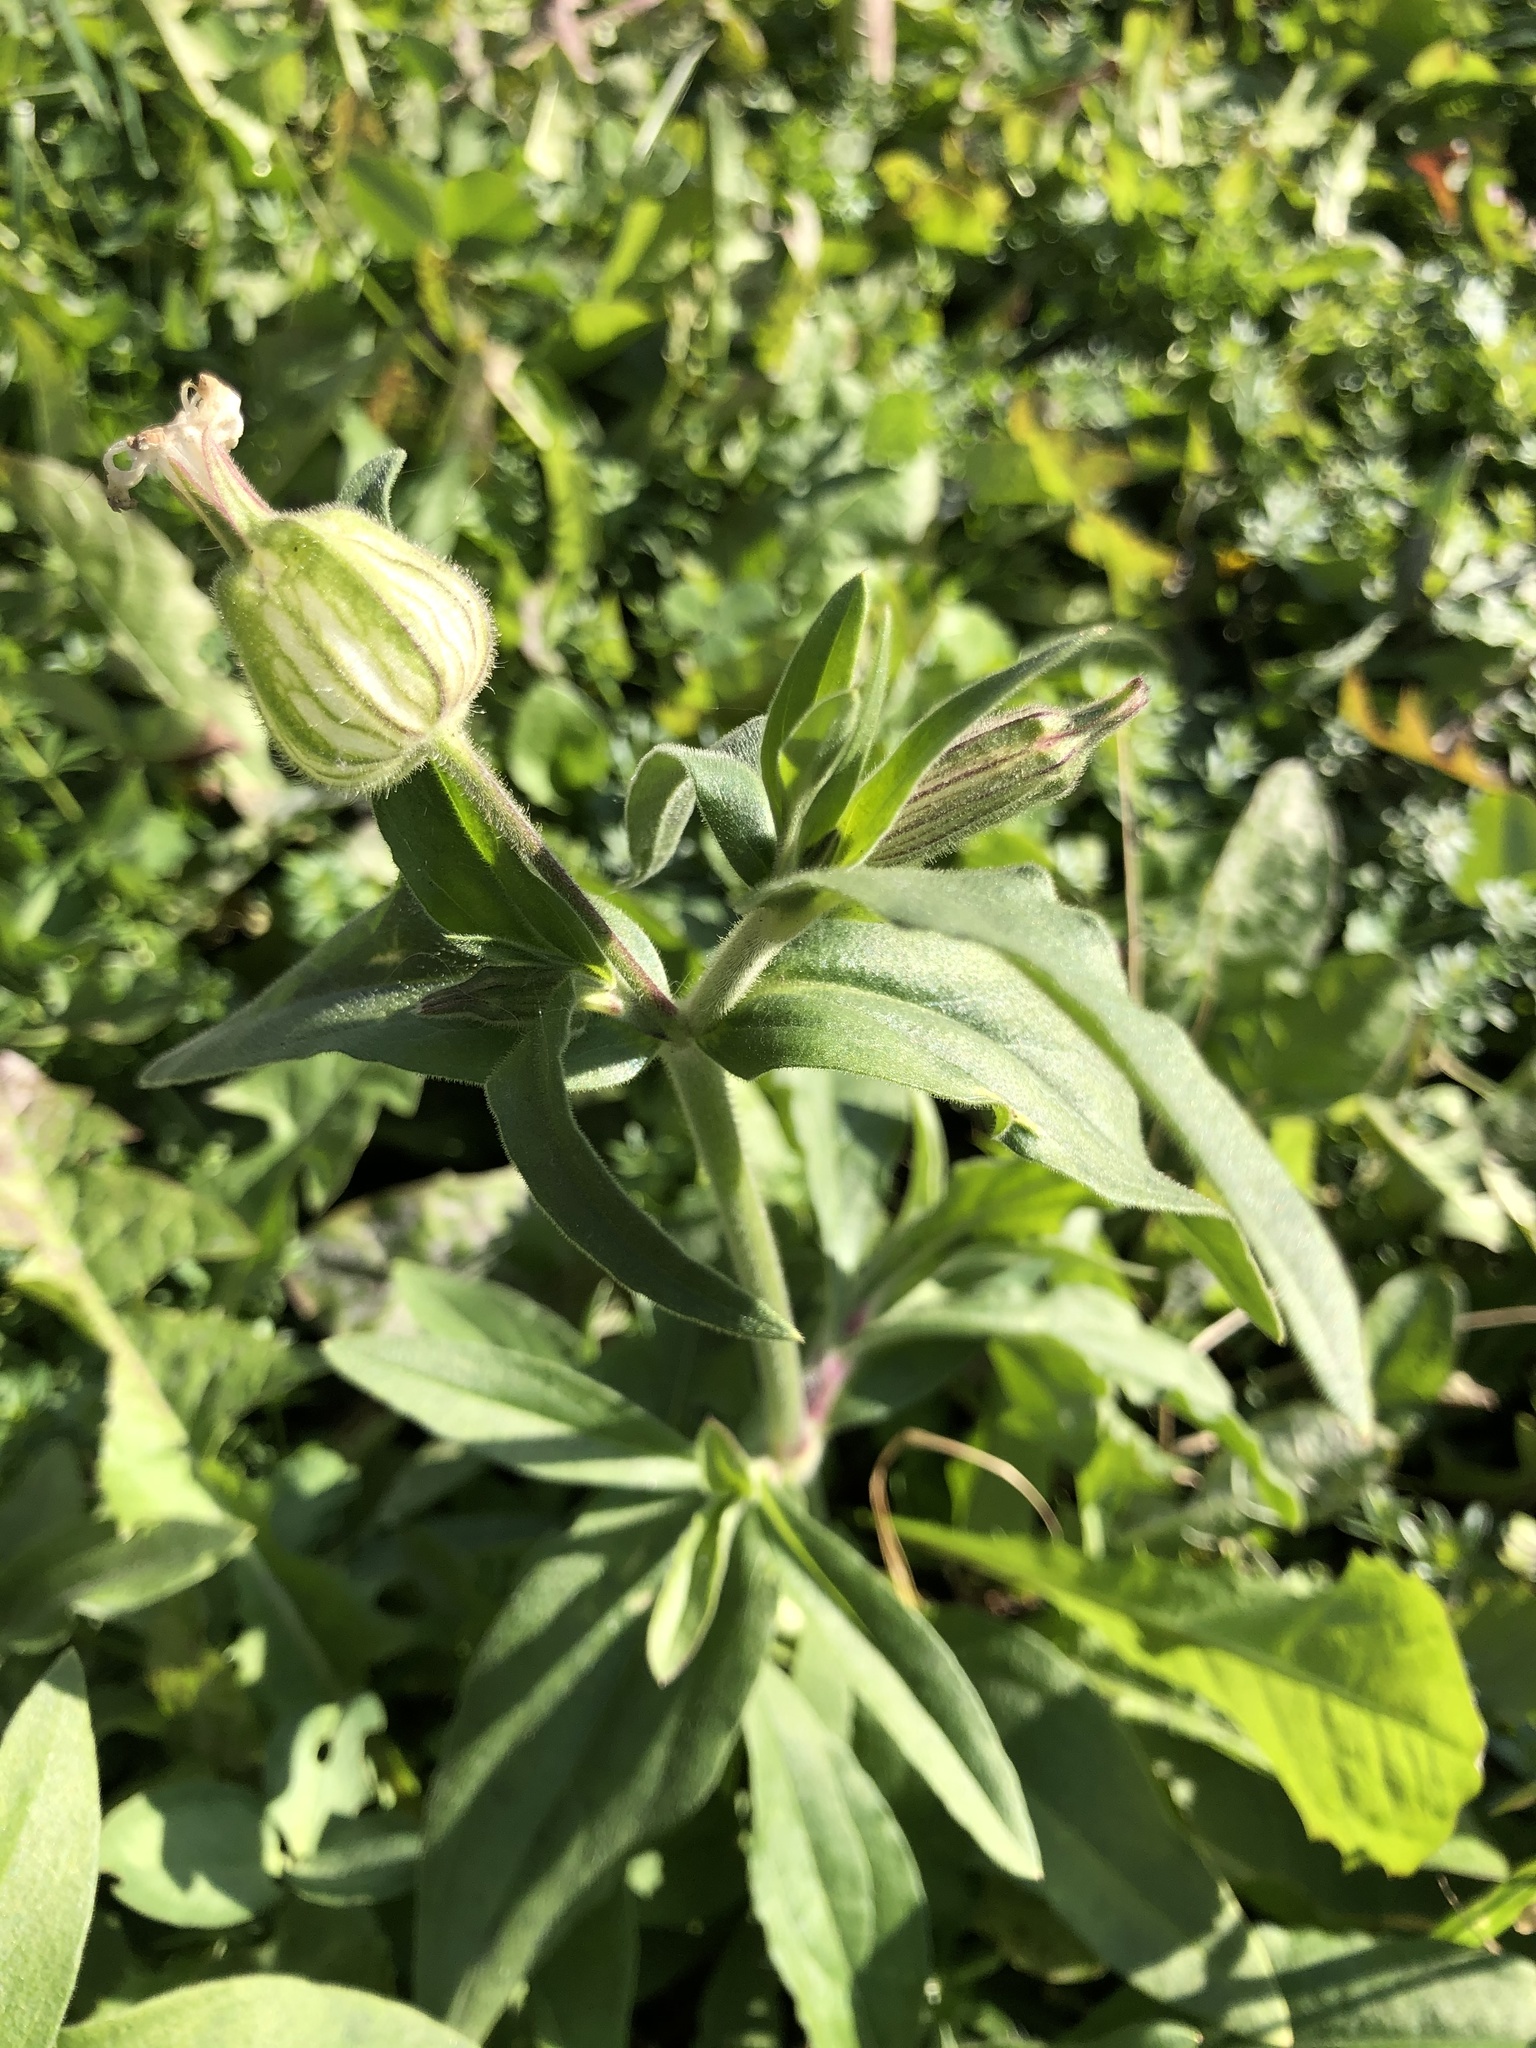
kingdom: Plantae
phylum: Tracheophyta
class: Magnoliopsida
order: Caryophyllales
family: Caryophyllaceae
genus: Silene
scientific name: Silene latifolia
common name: White campion
